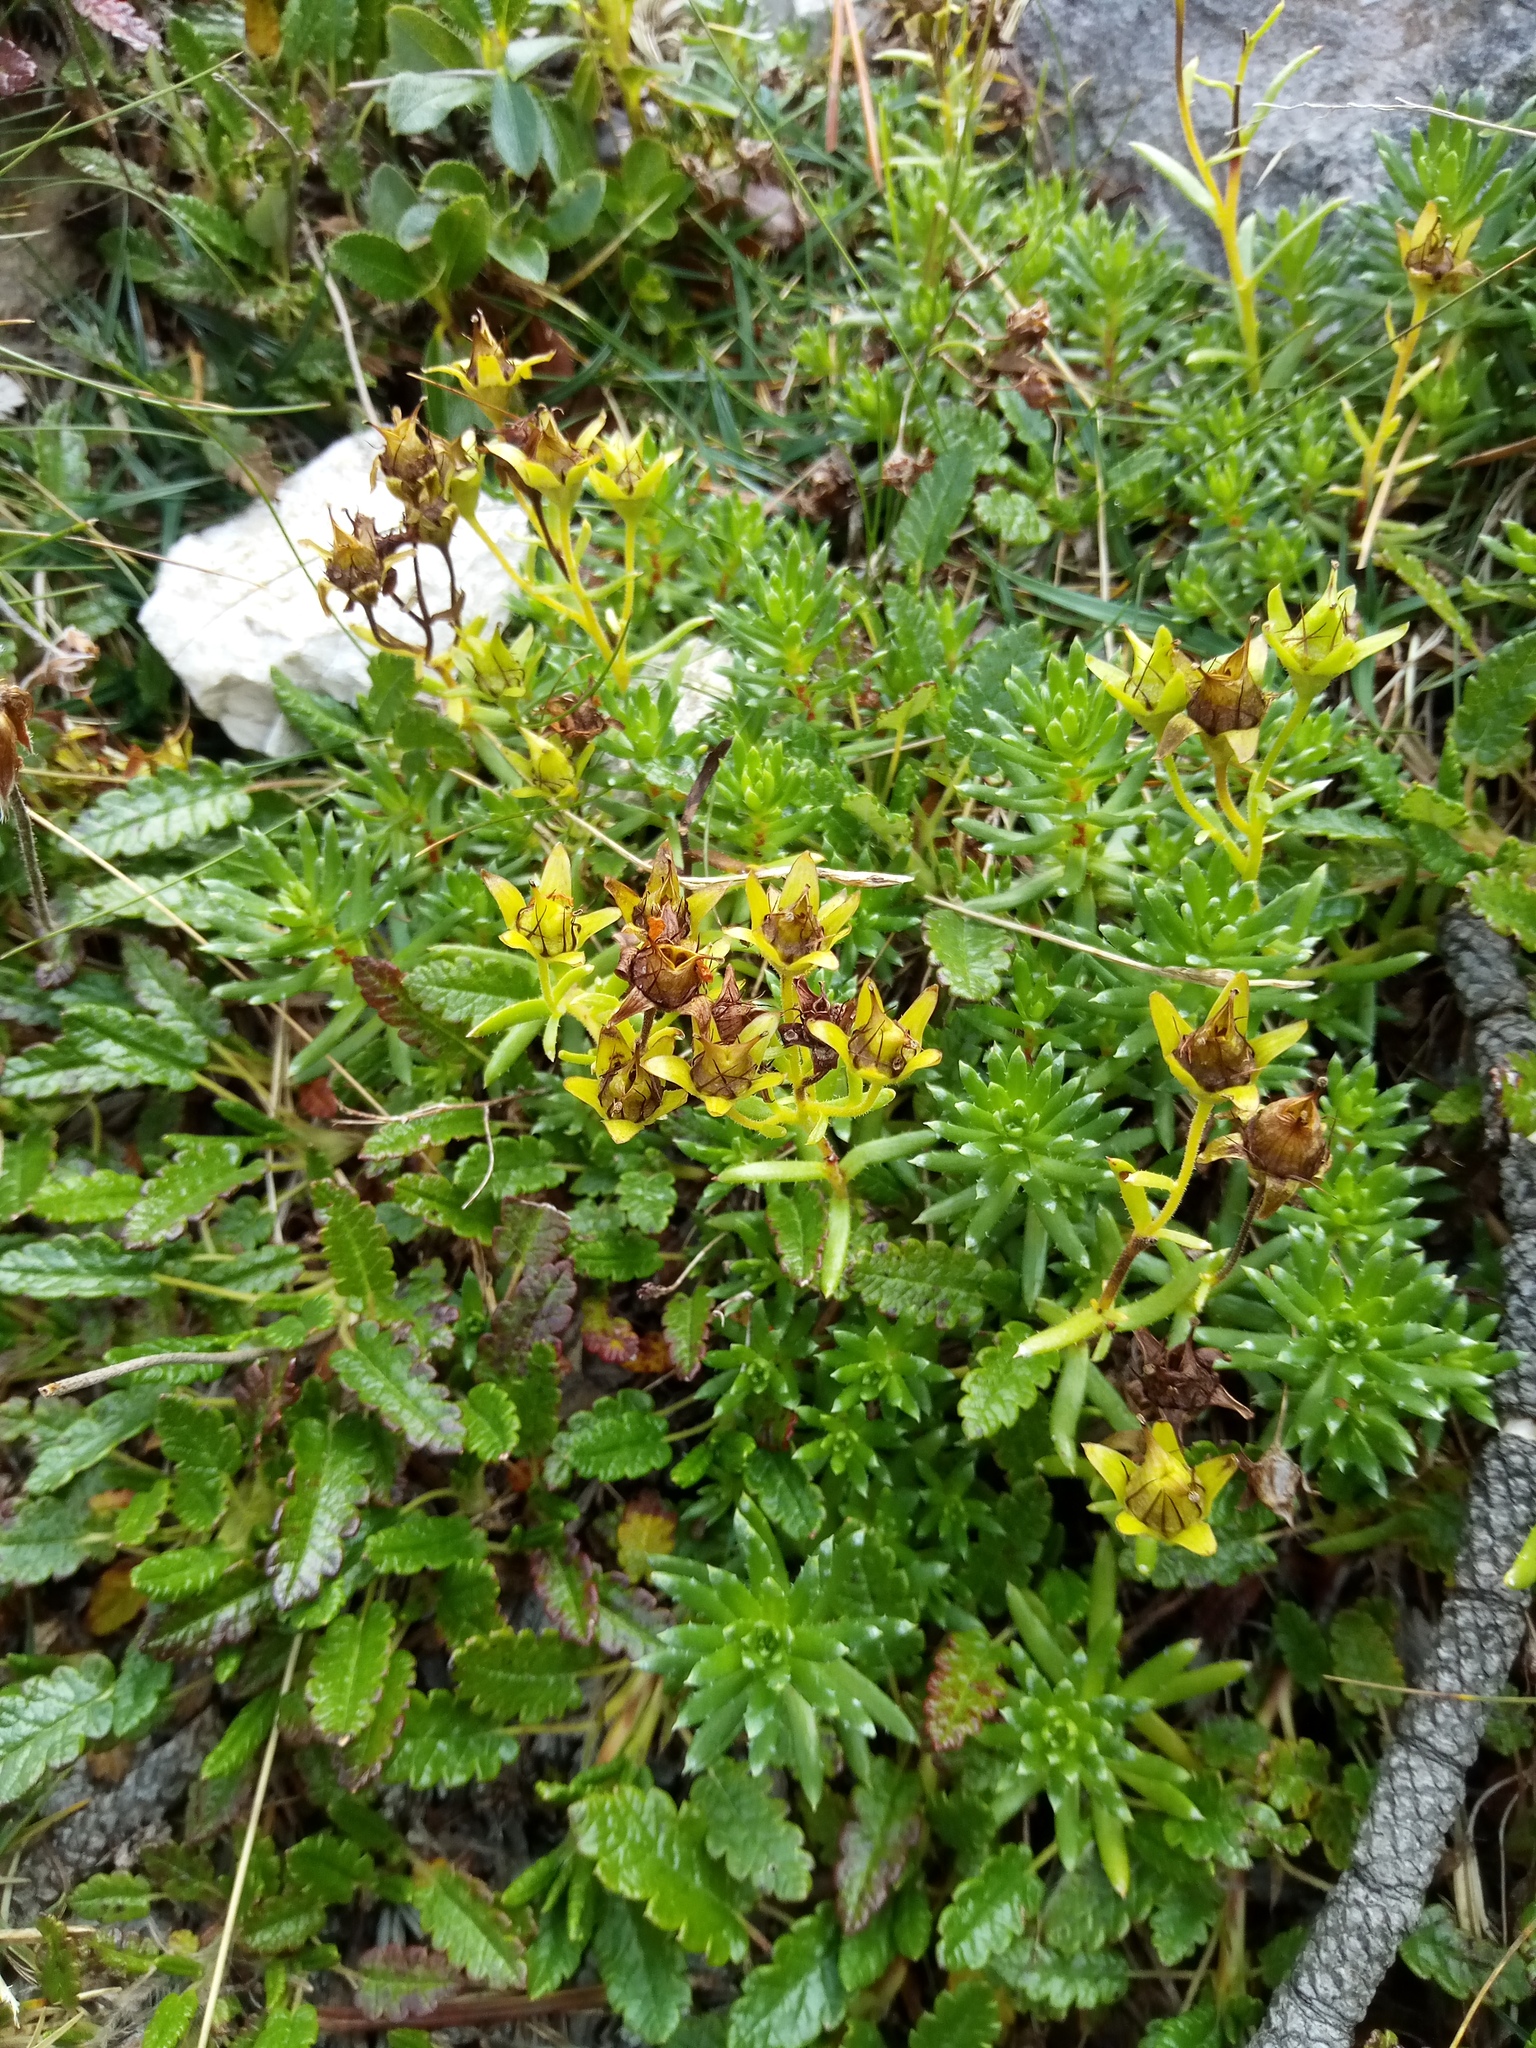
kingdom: Plantae
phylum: Tracheophyta
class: Magnoliopsida
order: Saxifragales
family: Saxifragaceae
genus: Saxifraga
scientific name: Saxifraga aizoides
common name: Yellow mountain saxifrage
